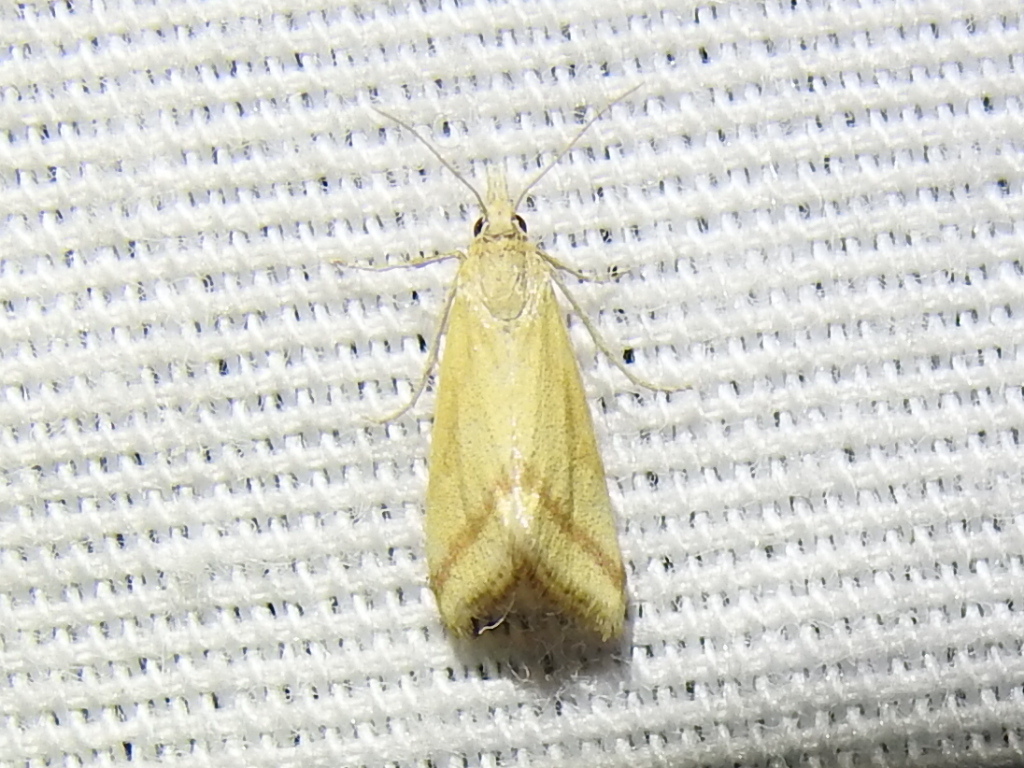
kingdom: Animalia
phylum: Arthropoda
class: Insecta
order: Lepidoptera
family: Crambidae
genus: Microtheoris
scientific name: Microtheoris vibicalis
